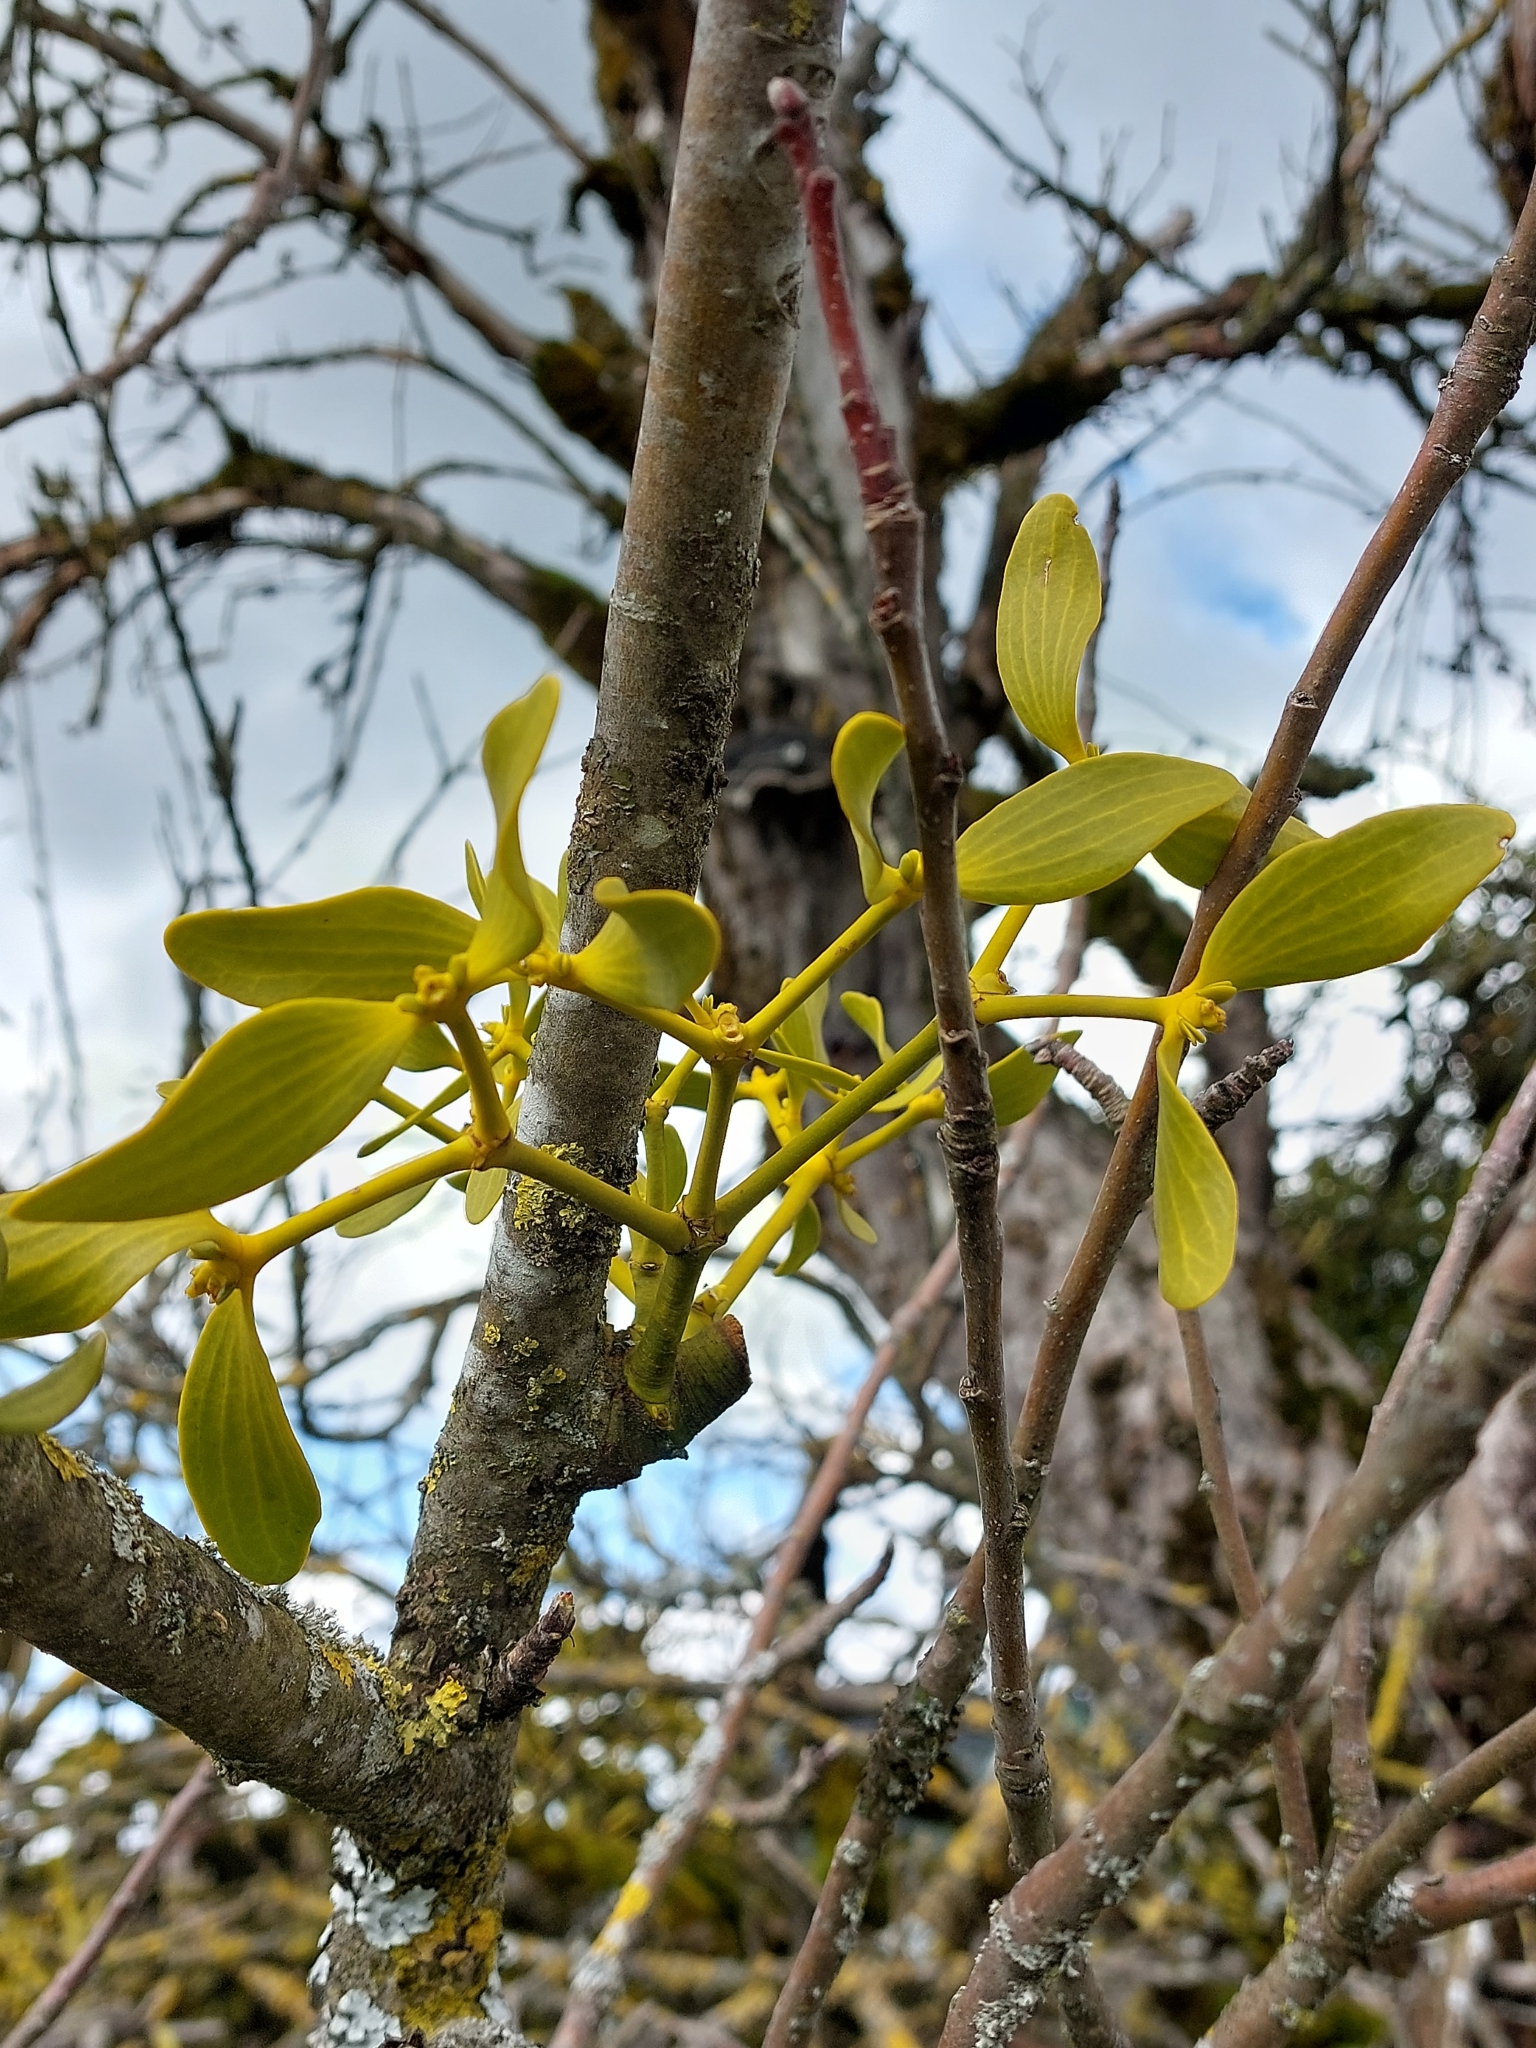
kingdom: Plantae
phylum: Tracheophyta
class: Magnoliopsida
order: Santalales
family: Viscaceae
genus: Viscum
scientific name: Viscum album
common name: Mistletoe
